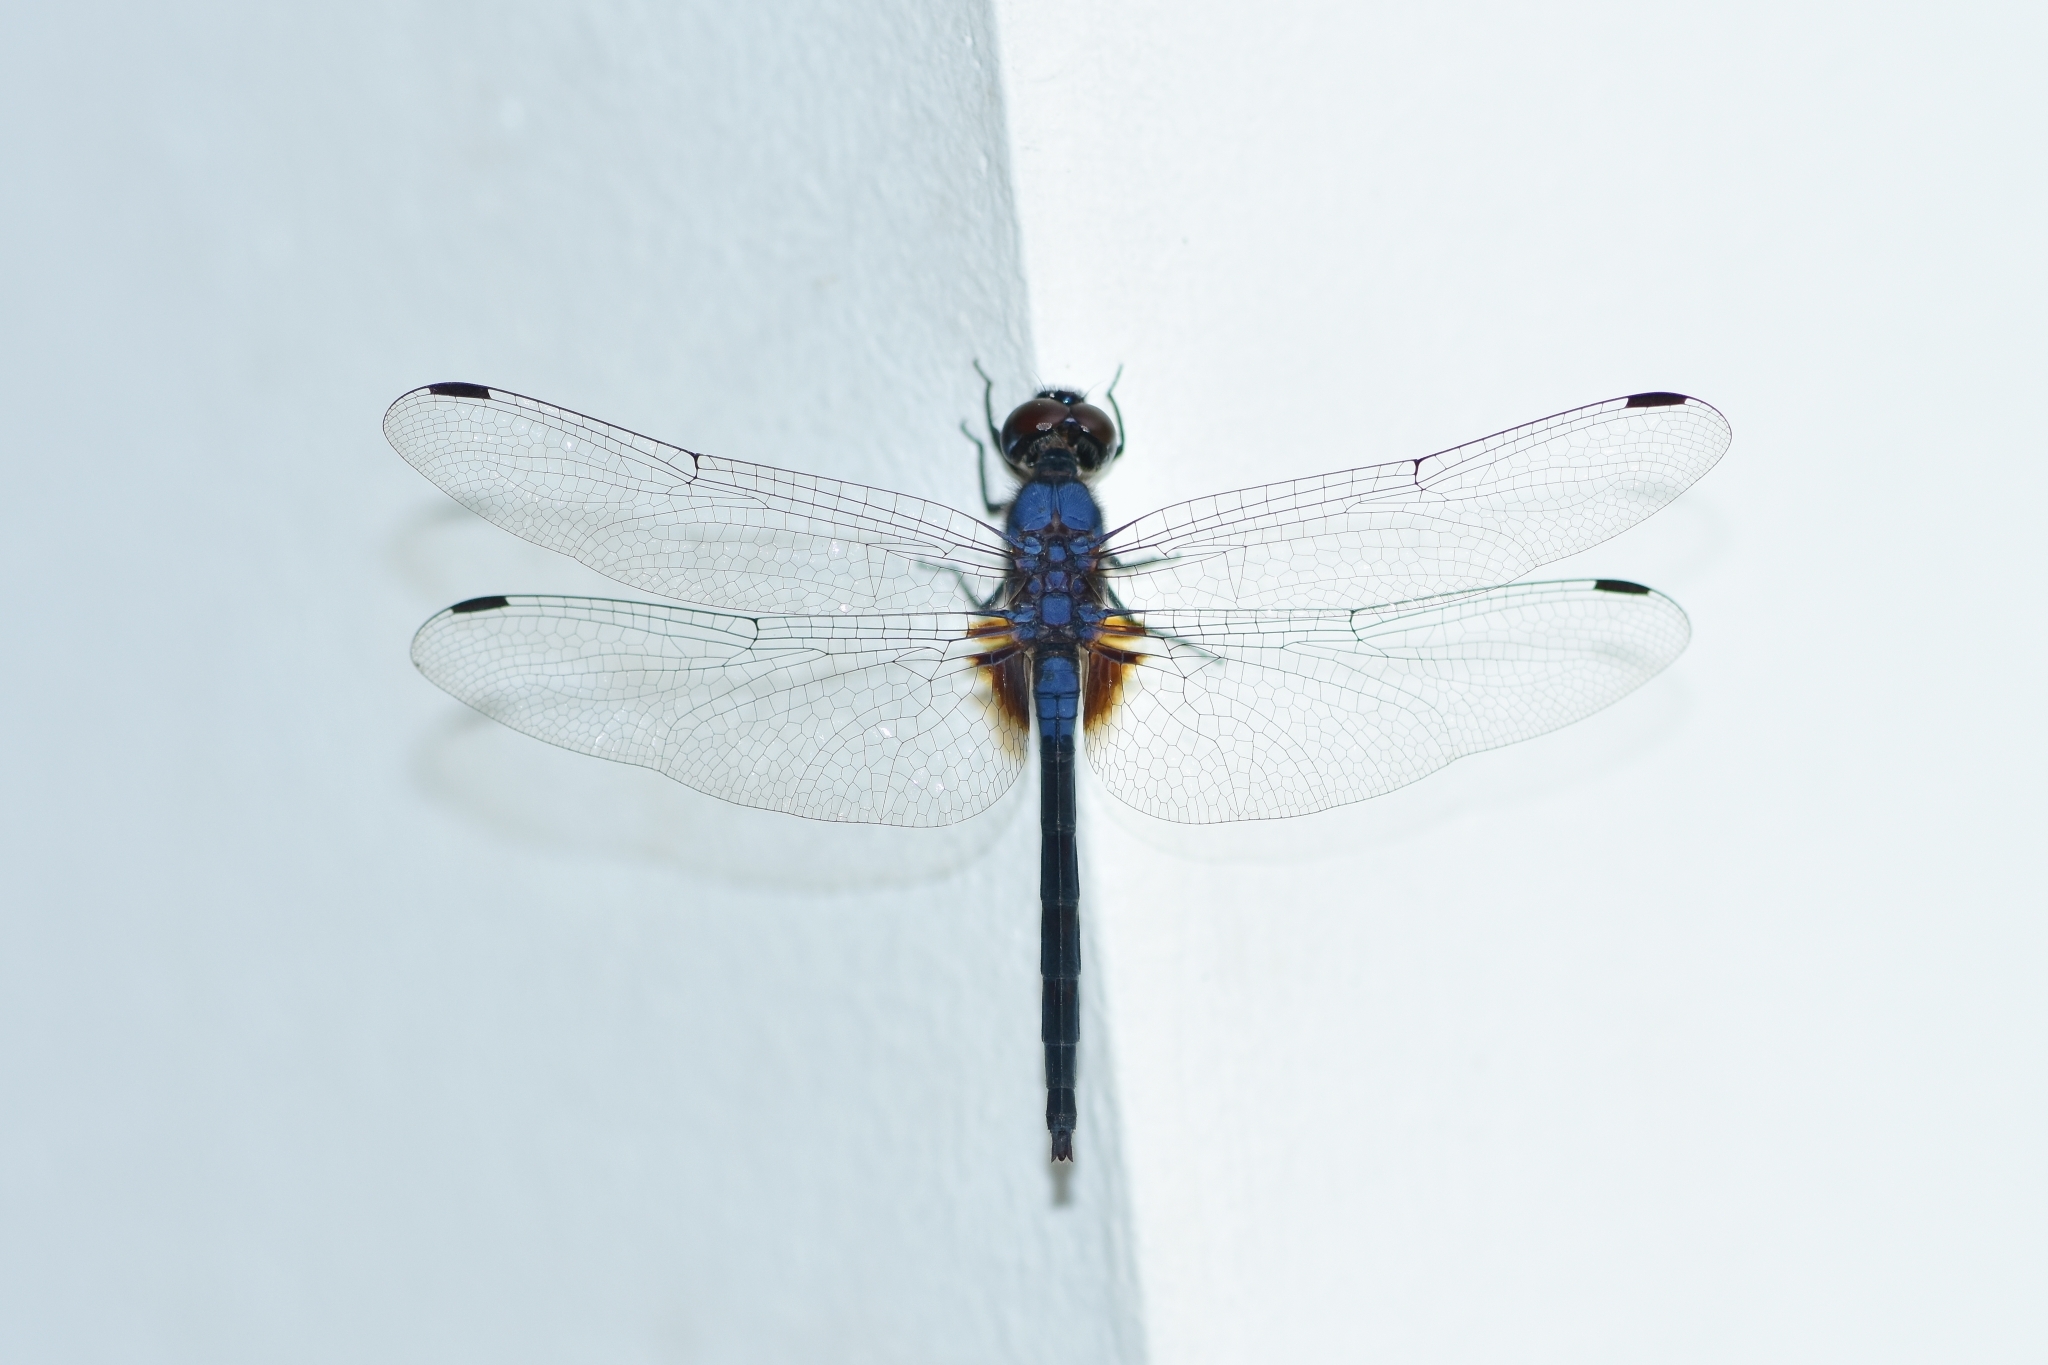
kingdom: Animalia
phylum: Arthropoda
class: Insecta
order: Odonata
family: Libellulidae
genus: Trithemis
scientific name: Trithemis festiva
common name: Indigo dropwing
